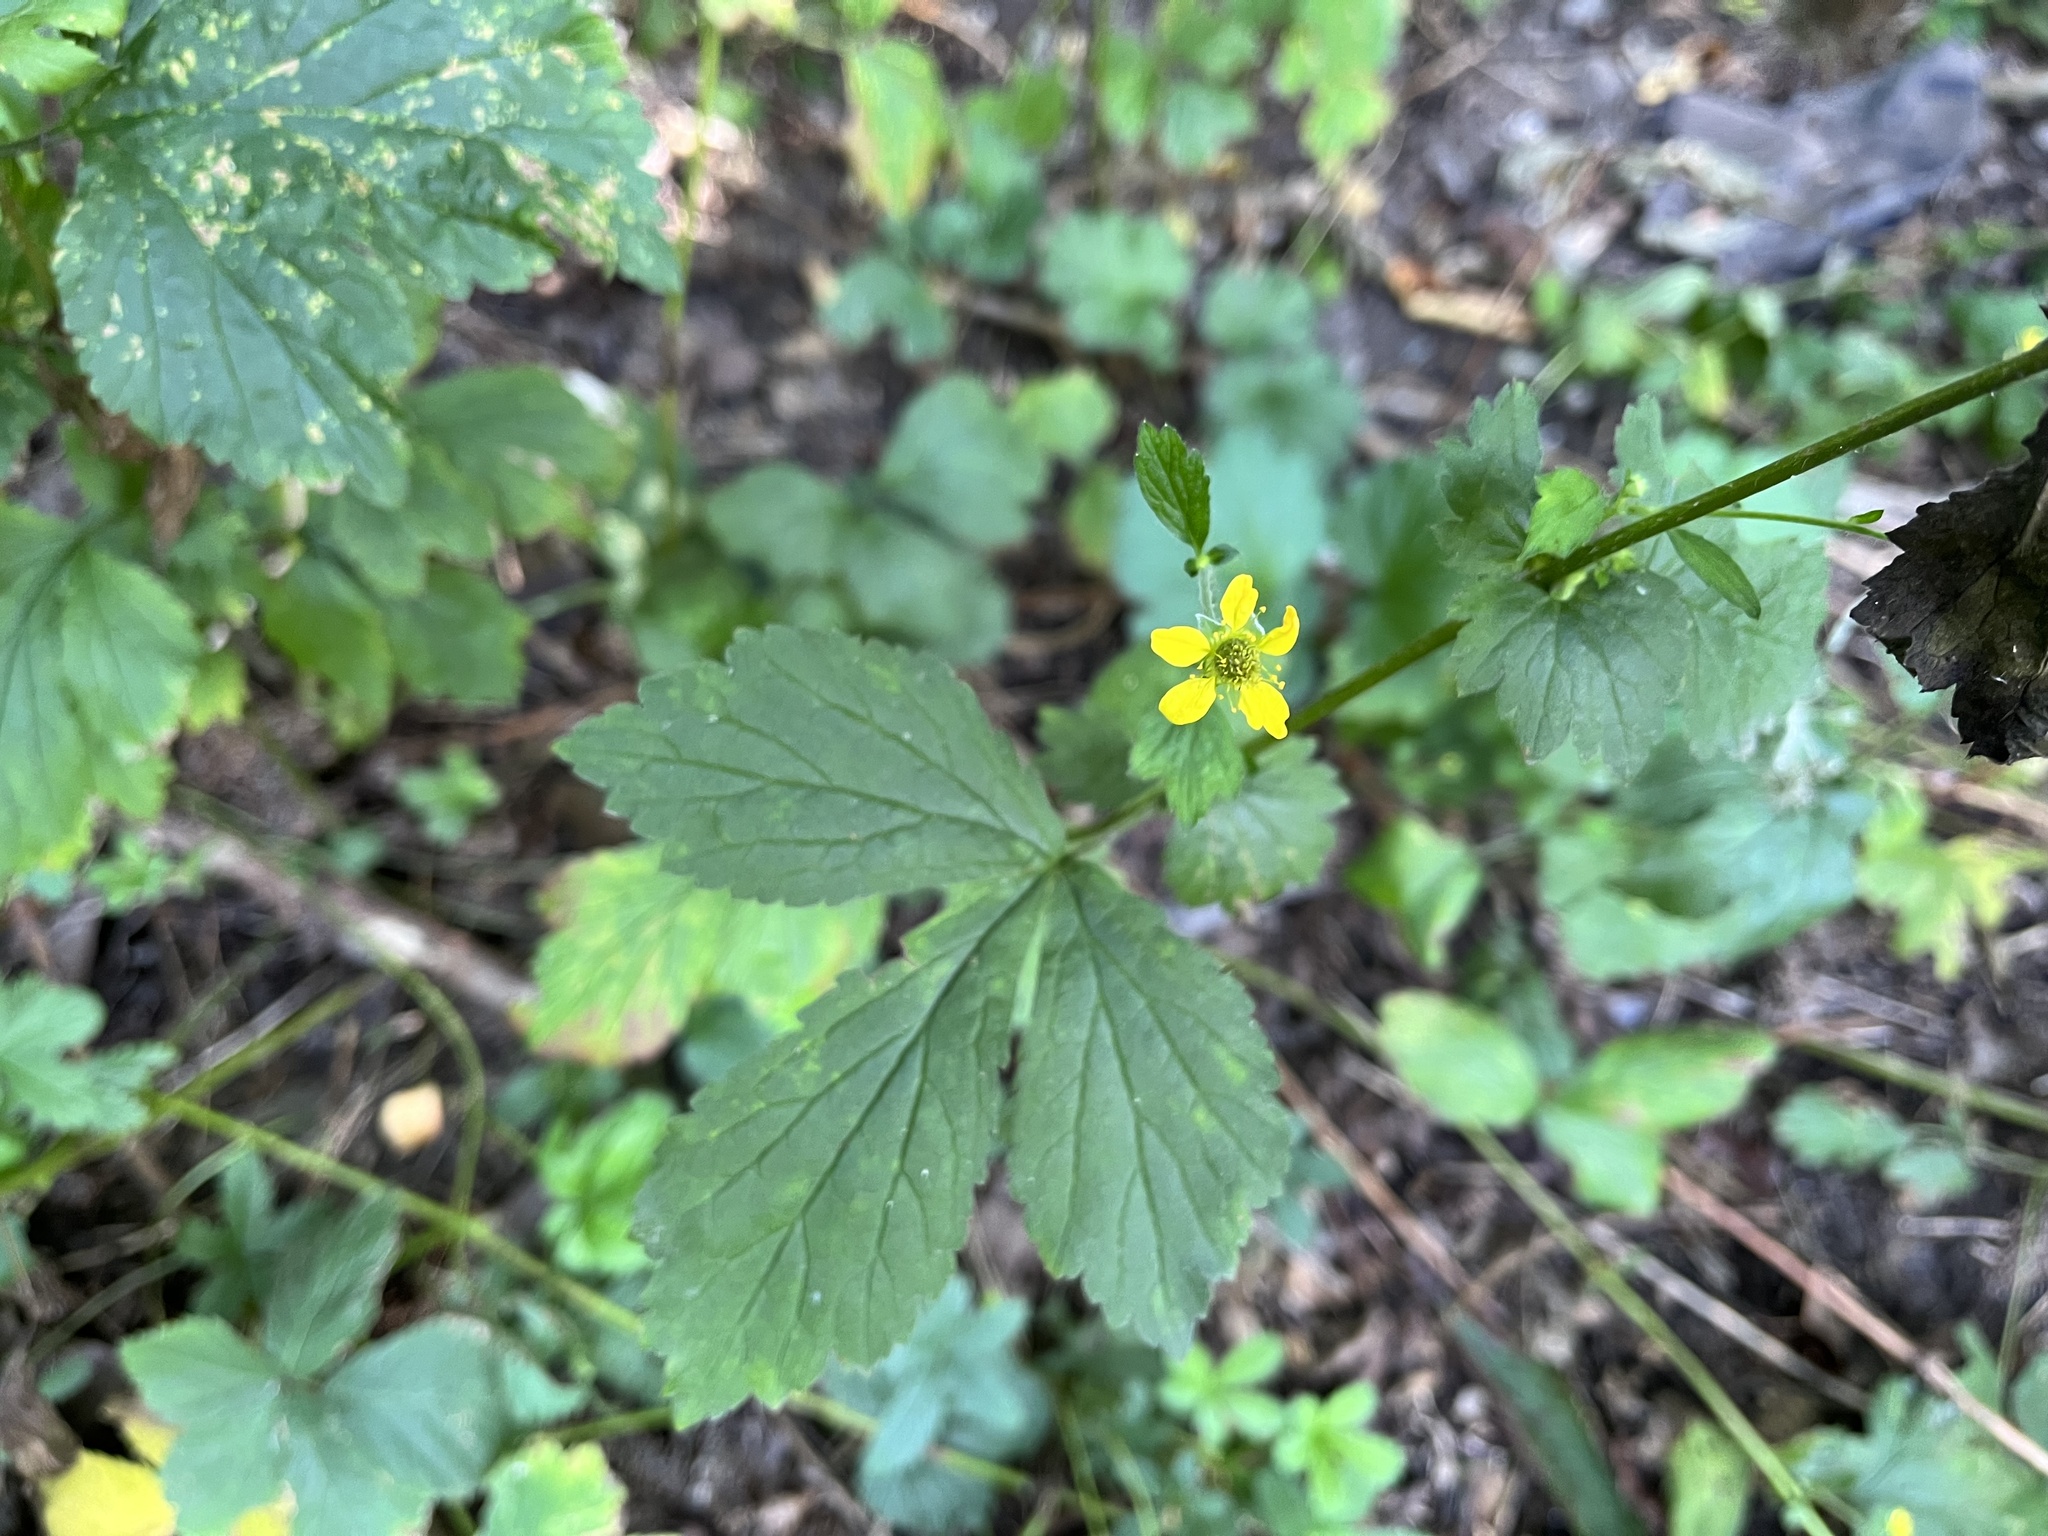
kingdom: Plantae
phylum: Tracheophyta
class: Magnoliopsida
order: Rosales
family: Rosaceae
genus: Geum
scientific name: Geum urbanum
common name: Wood avens
